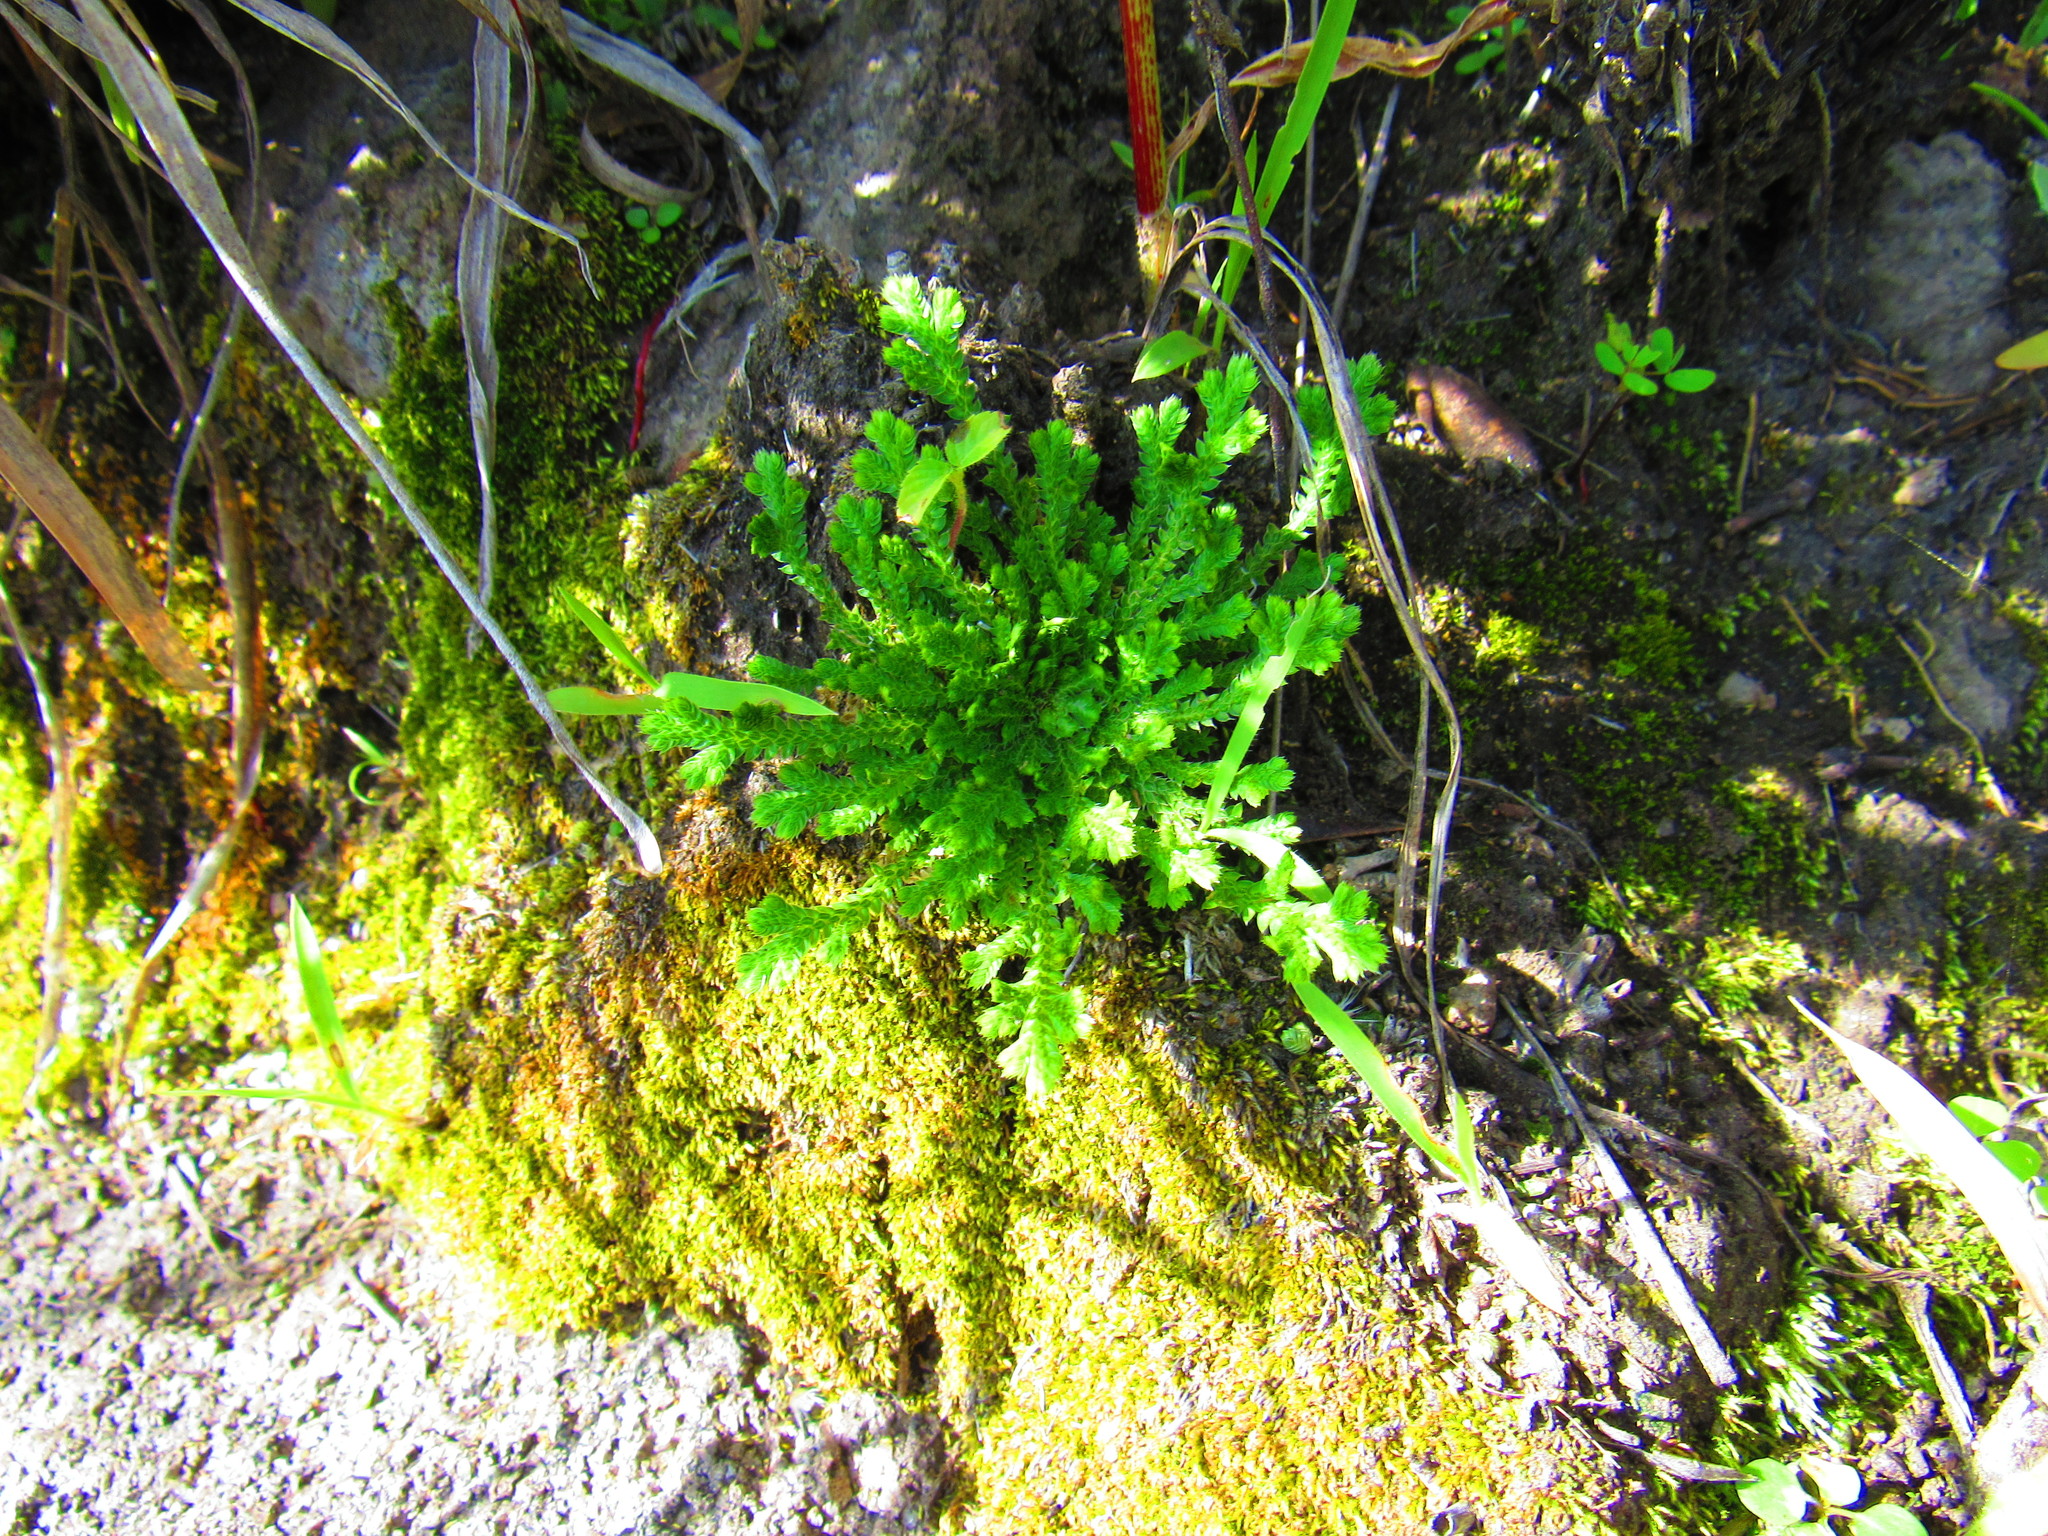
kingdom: Plantae
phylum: Tracheophyta
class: Lycopodiopsida
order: Selaginellales
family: Selaginellaceae
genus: Selaginella
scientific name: Selaginella lepidophylla
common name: Rose-of-jericho
